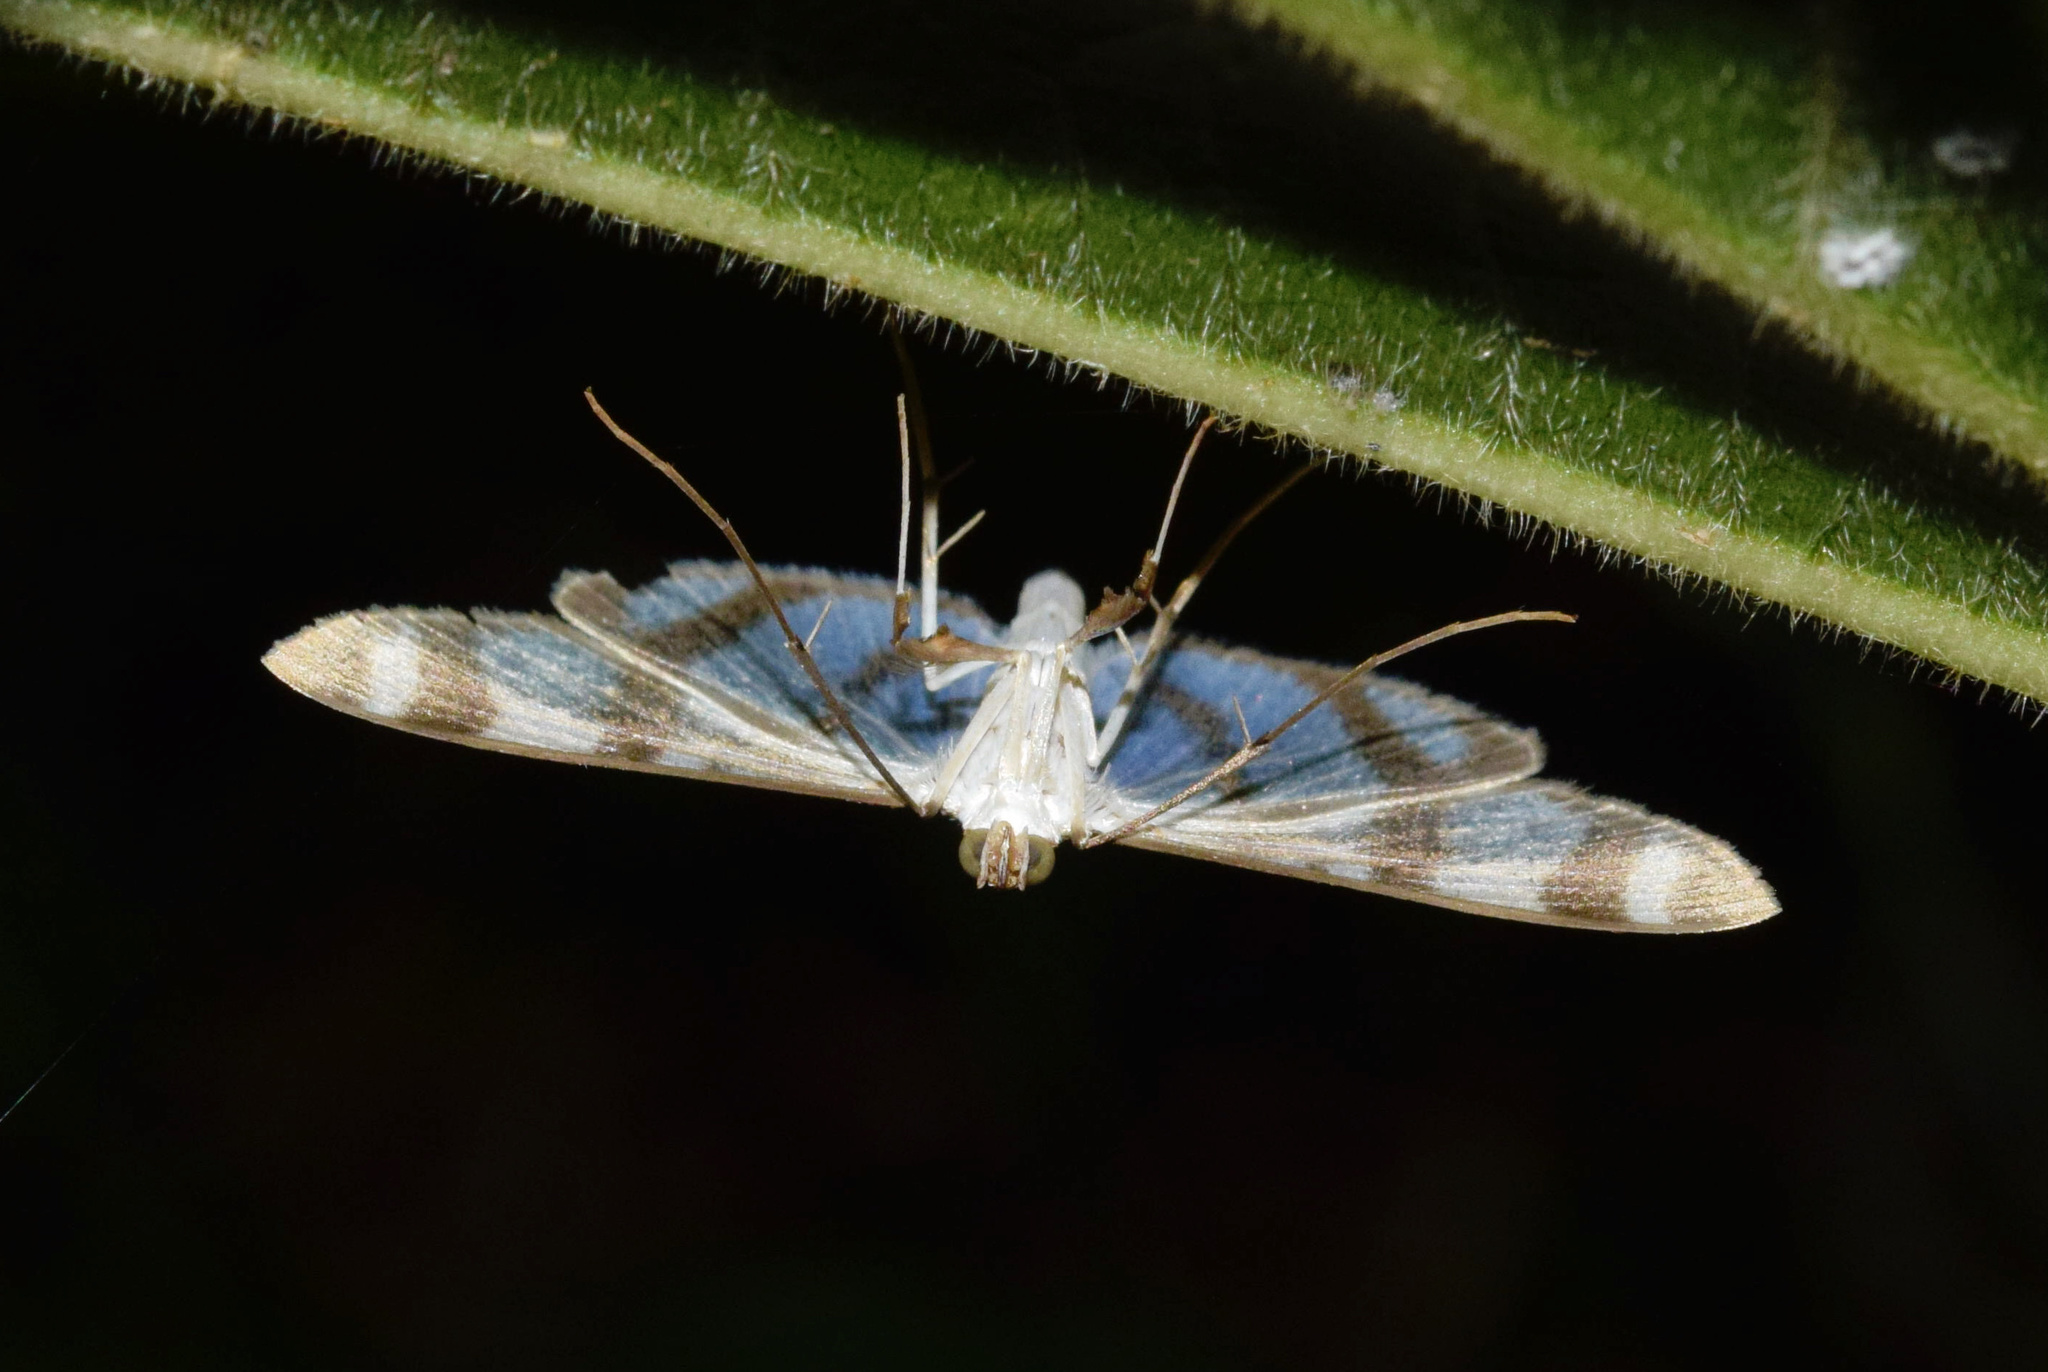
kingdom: Animalia
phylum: Arthropoda
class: Insecta
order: Lepidoptera
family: Crambidae
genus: Zebronia
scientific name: Zebronia phenice
